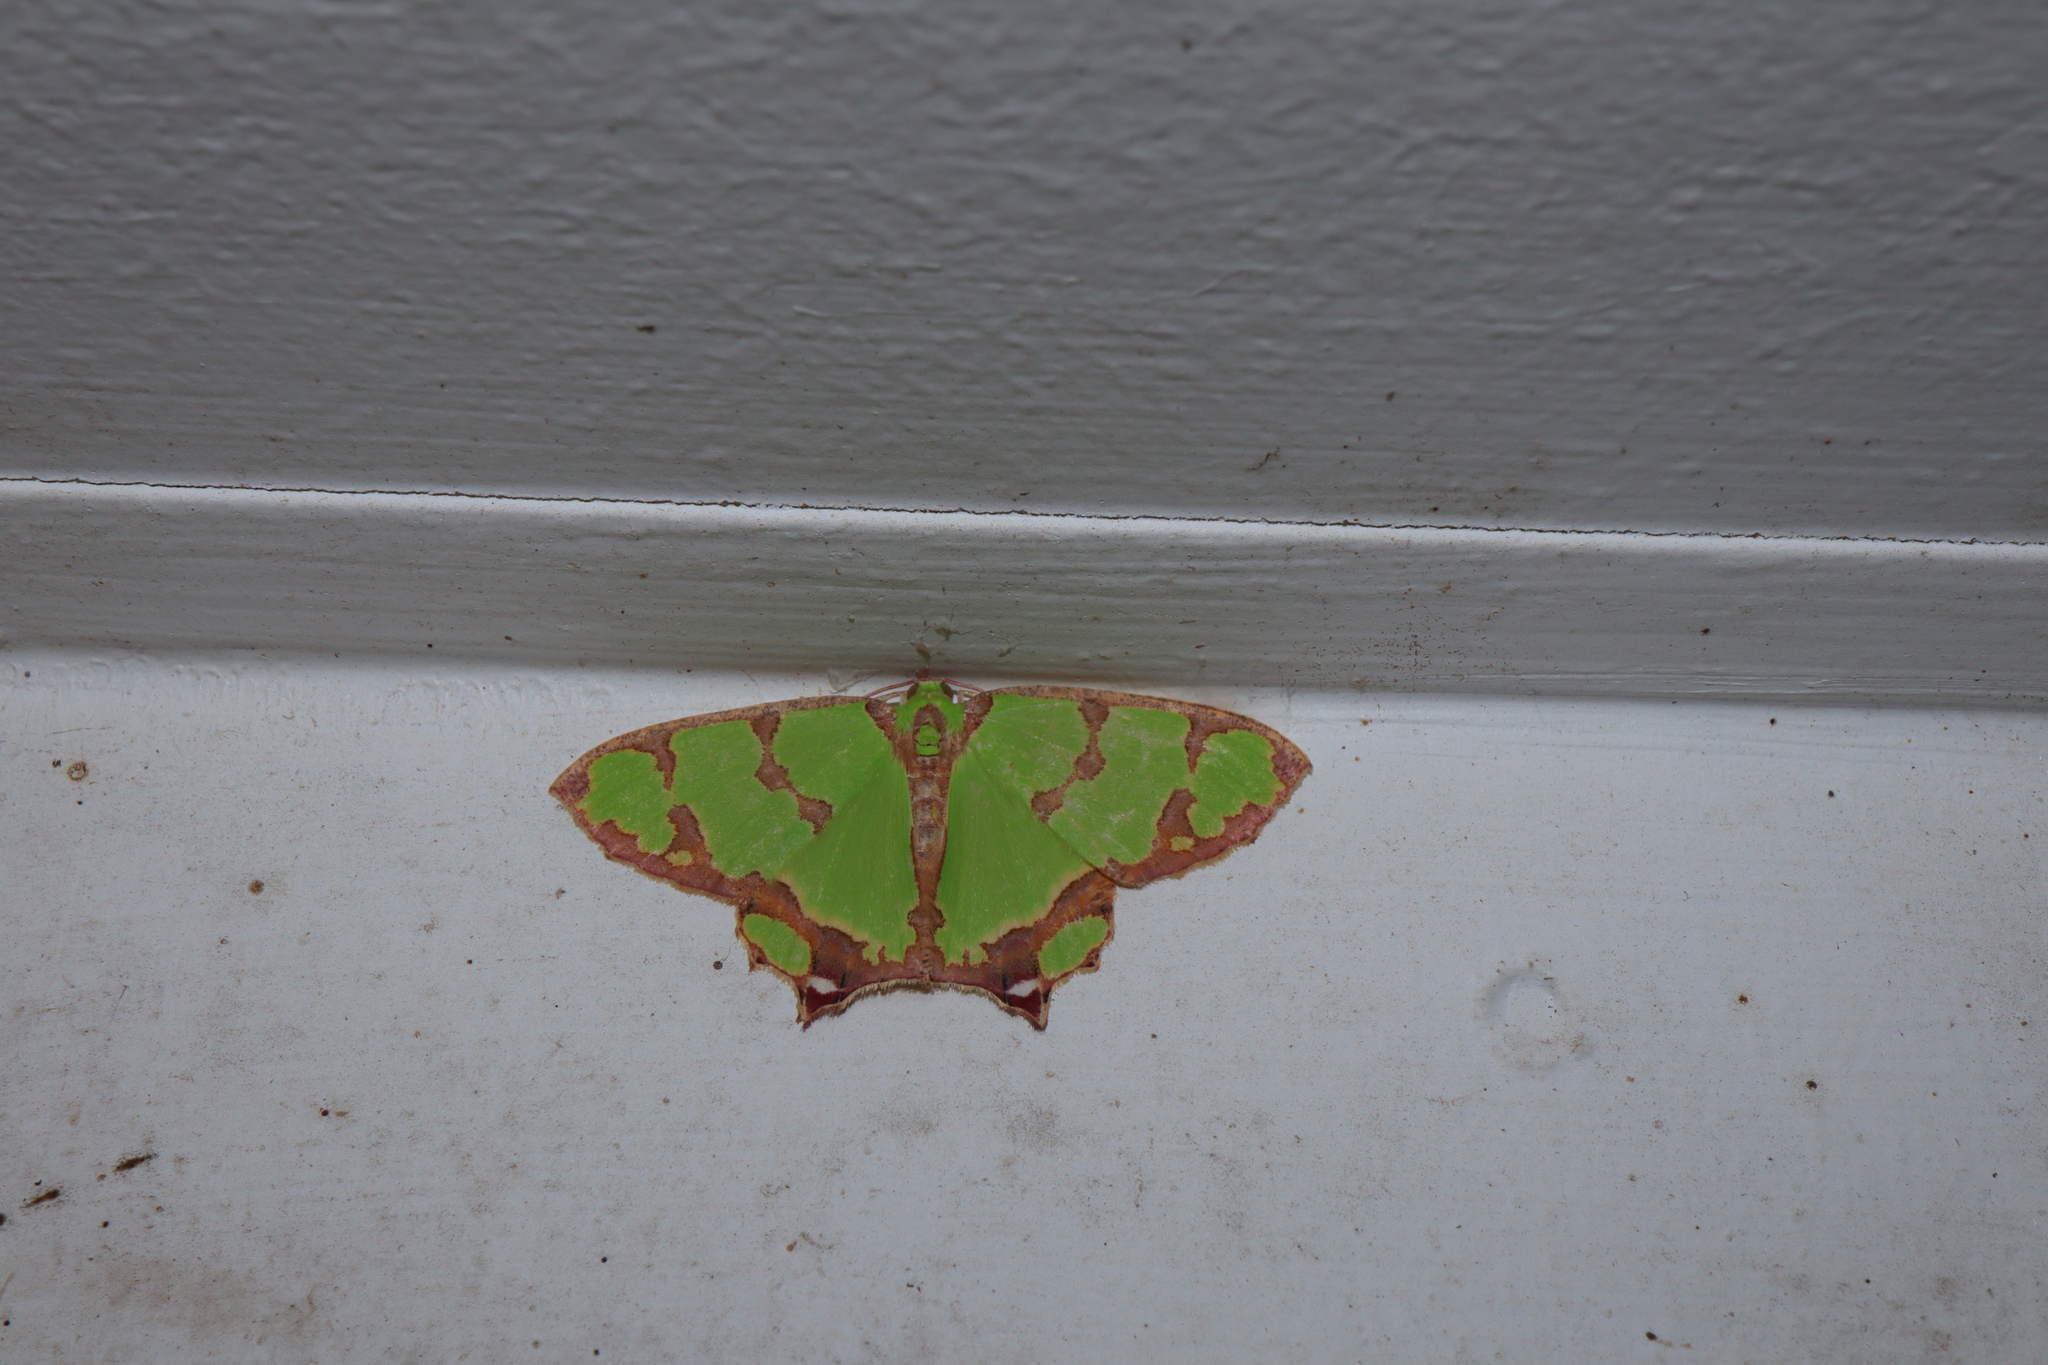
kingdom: Animalia
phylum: Arthropoda
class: Insecta
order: Lepidoptera
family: Geometridae
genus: Agathia
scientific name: Agathia pisina
